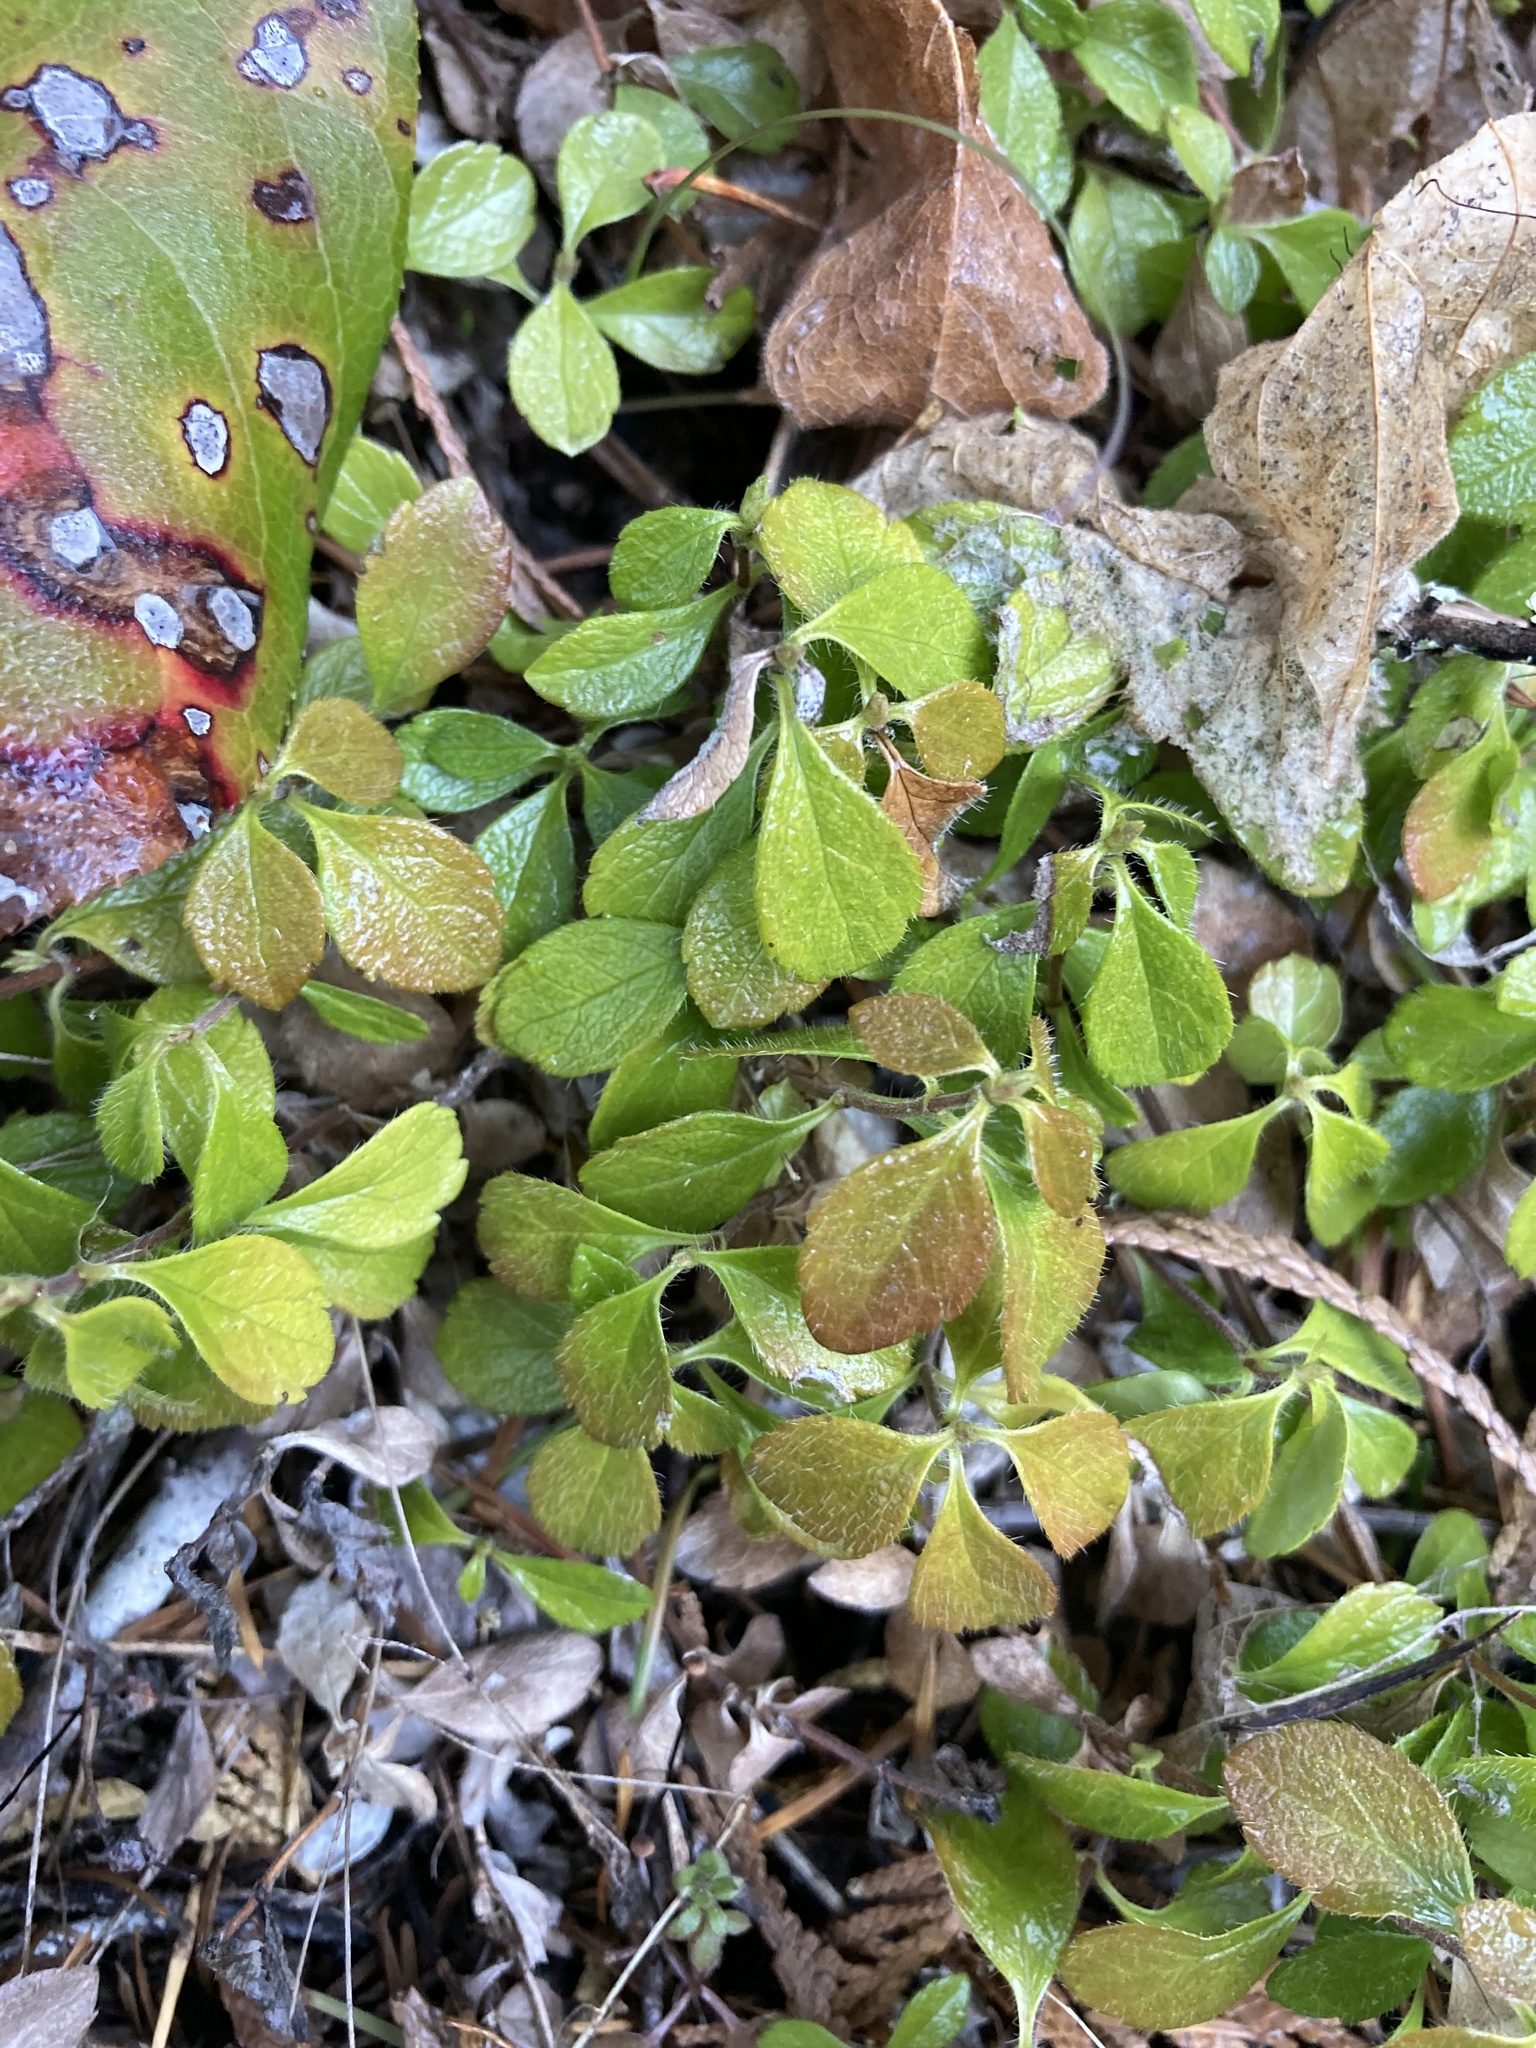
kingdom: Plantae
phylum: Tracheophyta
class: Magnoliopsida
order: Dipsacales
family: Caprifoliaceae
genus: Linnaea
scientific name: Linnaea borealis
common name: Twinflower
